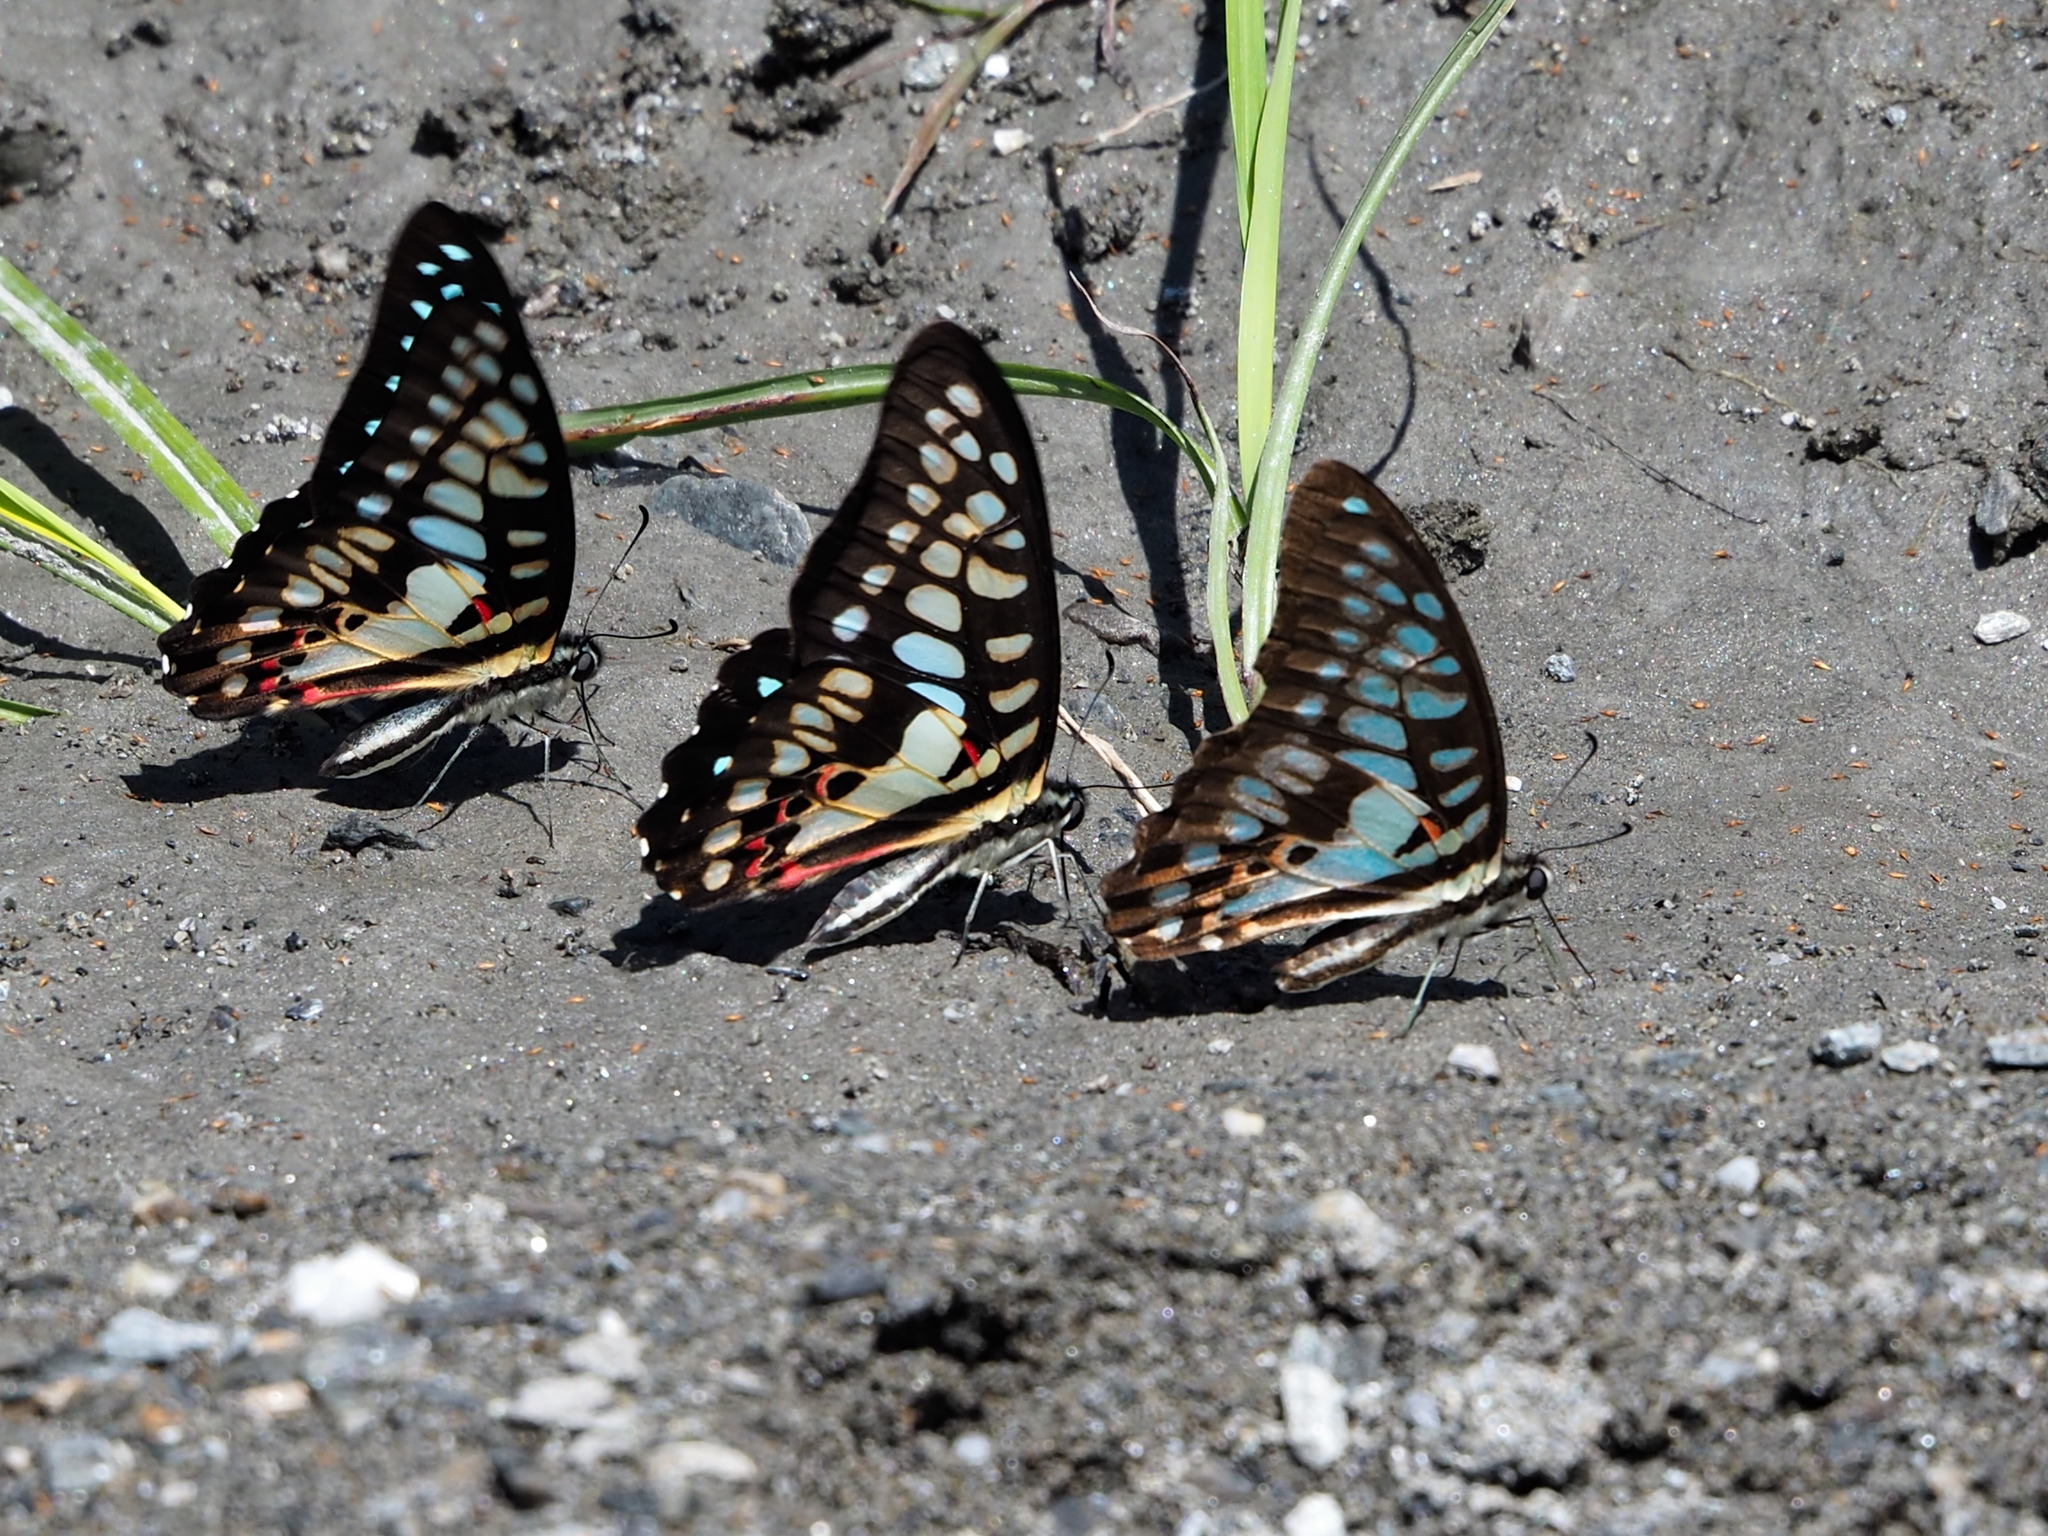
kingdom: Animalia
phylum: Arthropoda
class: Insecta
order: Lepidoptera
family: Papilionidae
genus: Graphium
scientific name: Graphium doson
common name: Common jay
